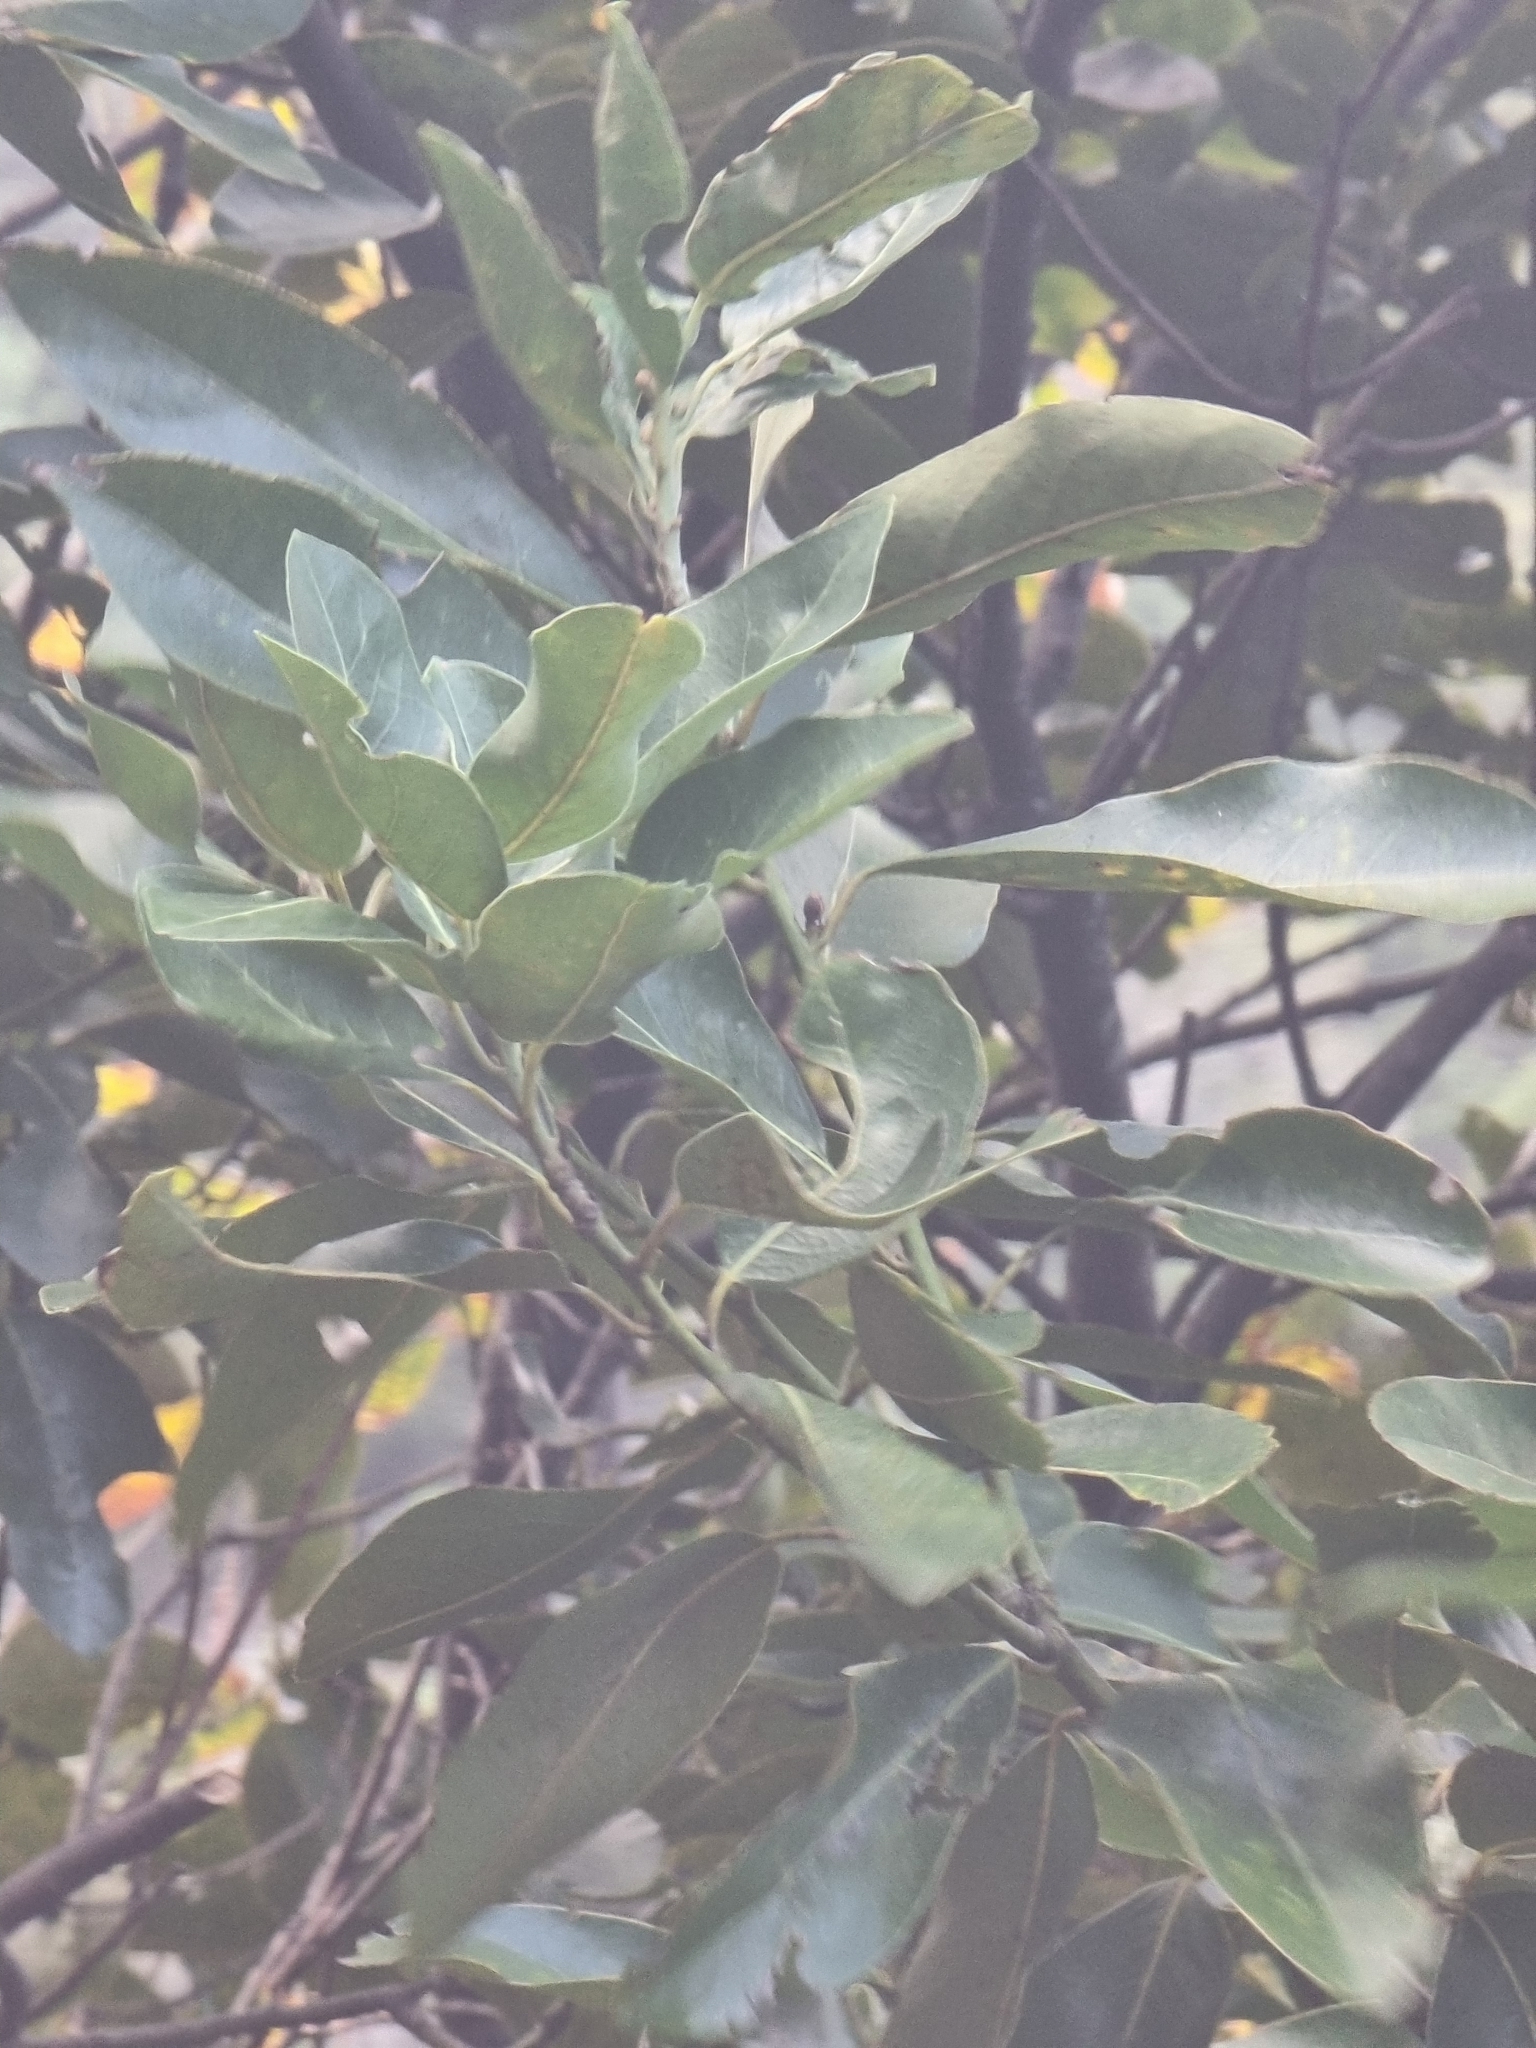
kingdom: Plantae
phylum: Tracheophyta
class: Magnoliopsida
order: Laurales
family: Lauraceae
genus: Laurus
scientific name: Laurus novocanariensis
